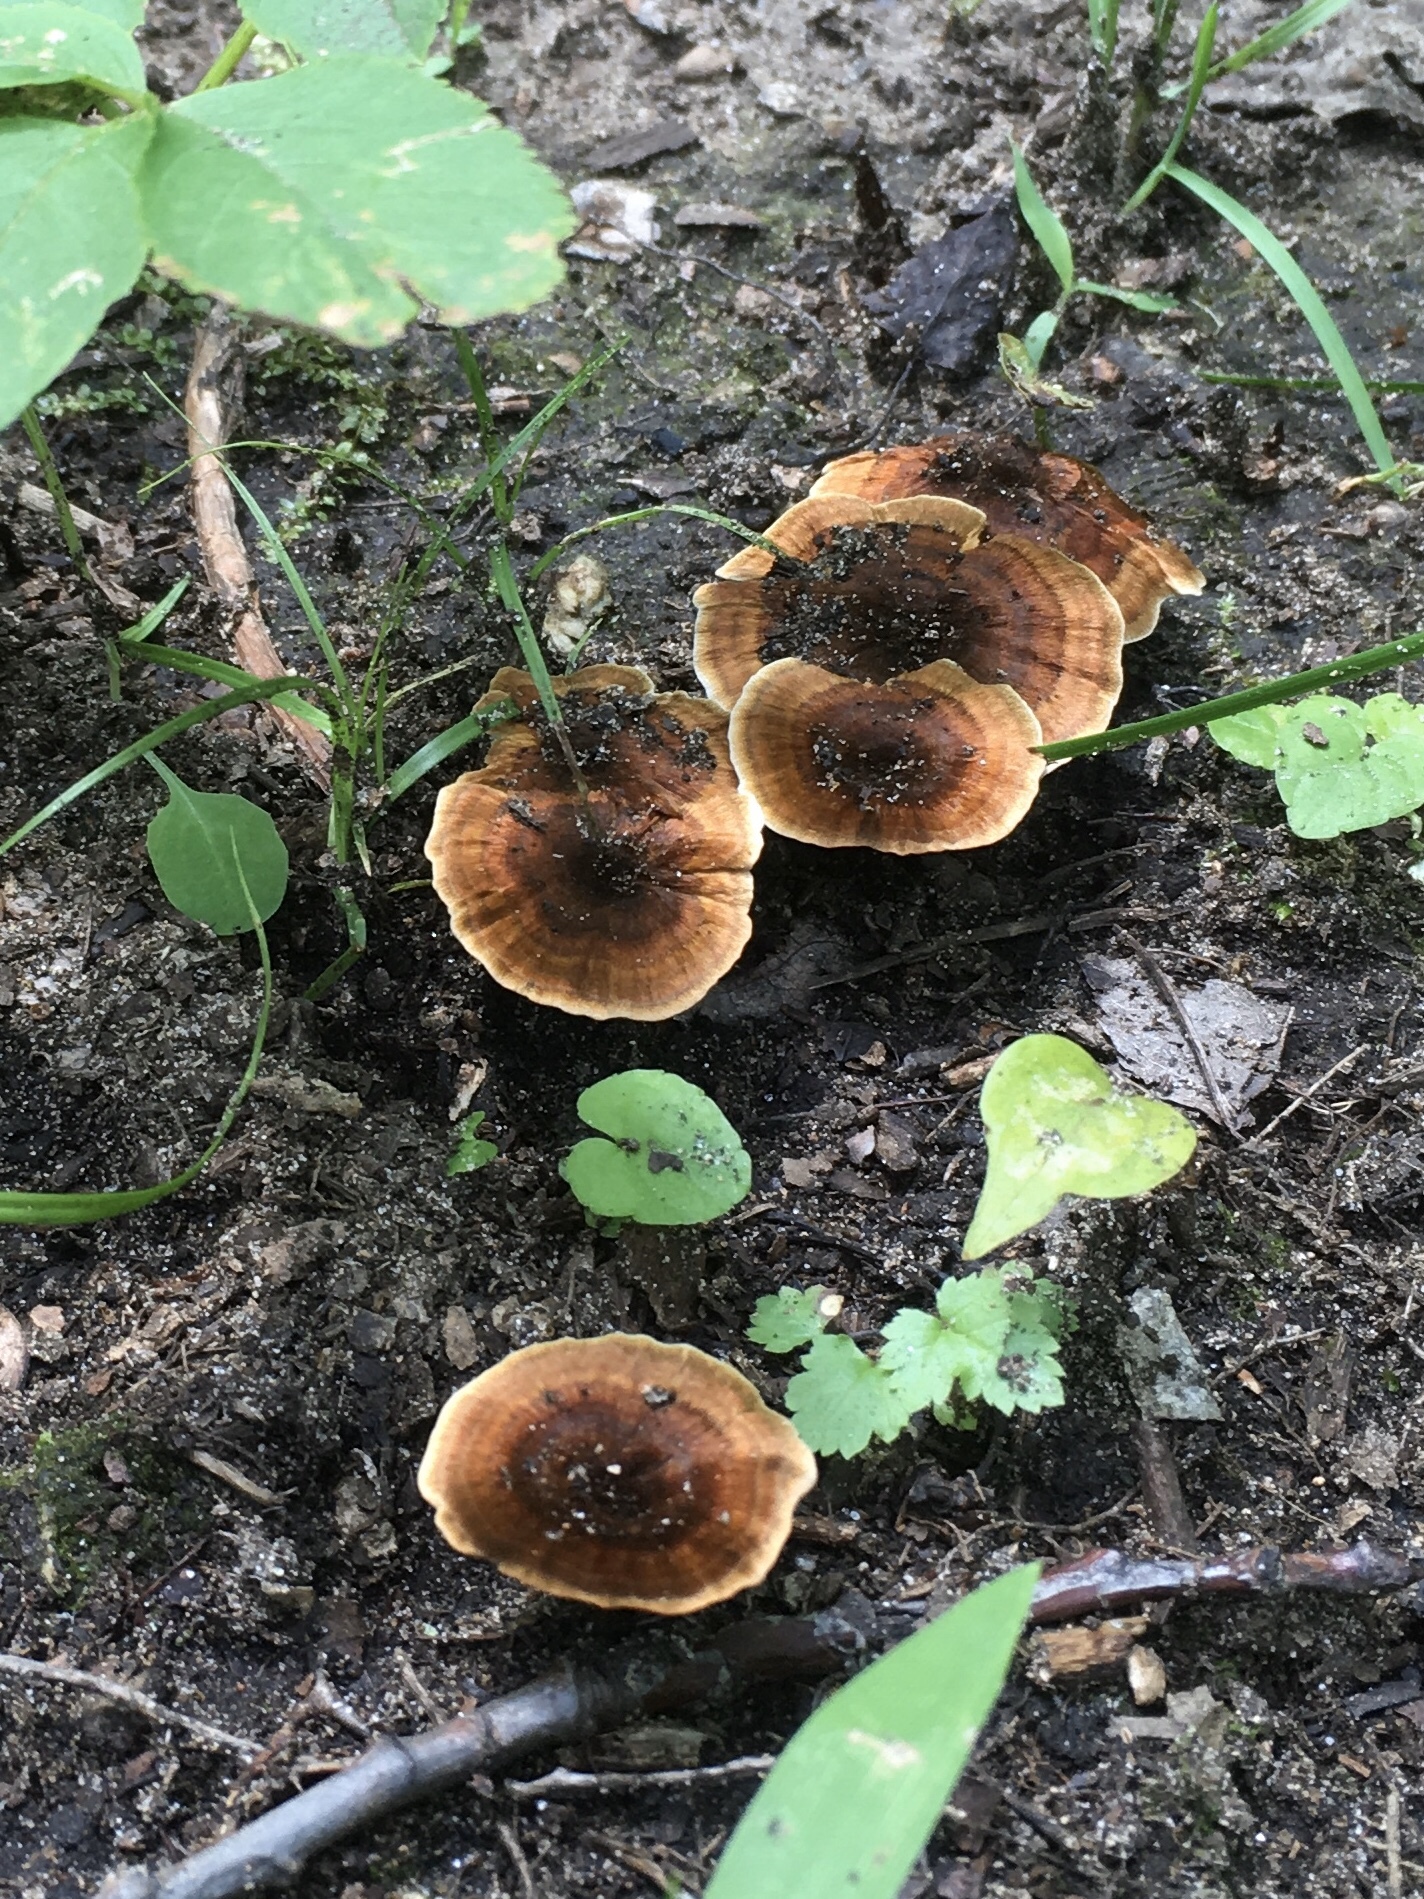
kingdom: Fungi
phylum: Basidiomycota
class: Agaricomycetes
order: Hymenochaetales
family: Hymenochaetaceae
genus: Coltricia
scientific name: Coltricia cinnamomea
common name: Shiny cinnamon polypore
